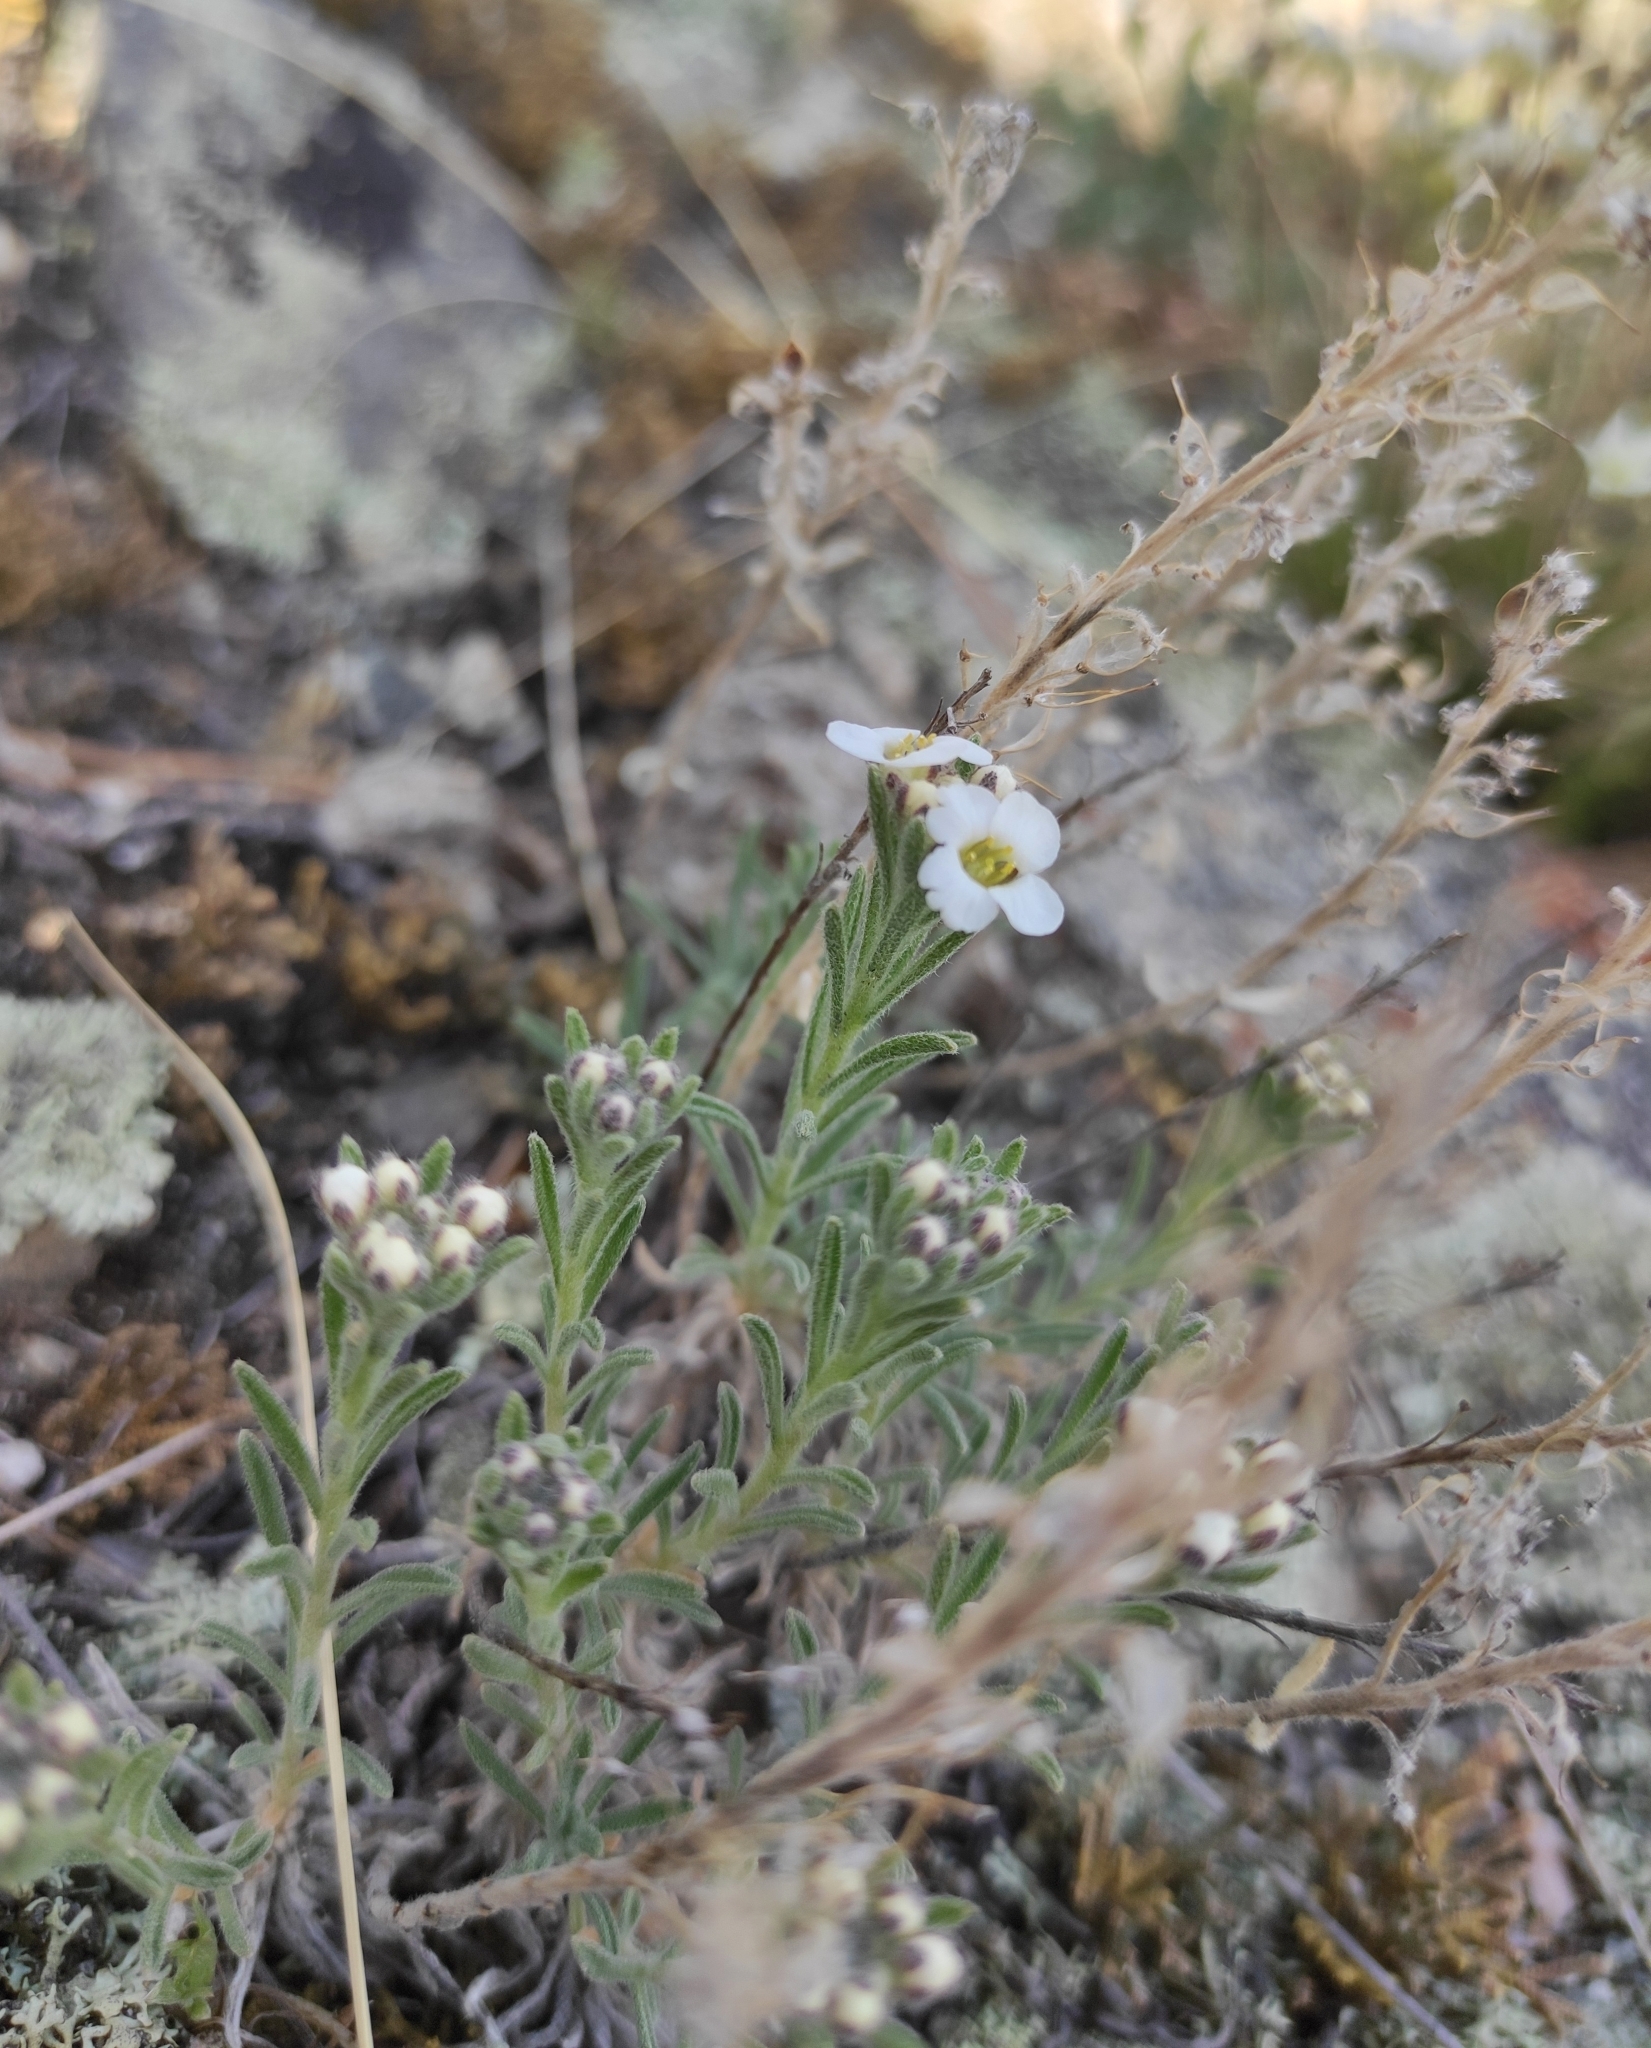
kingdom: Plantae
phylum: Tracheophyta
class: Magnoliopsida
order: Brassicales
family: Brassicaceae
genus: Stevenia
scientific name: Stevenia tenuifolia
